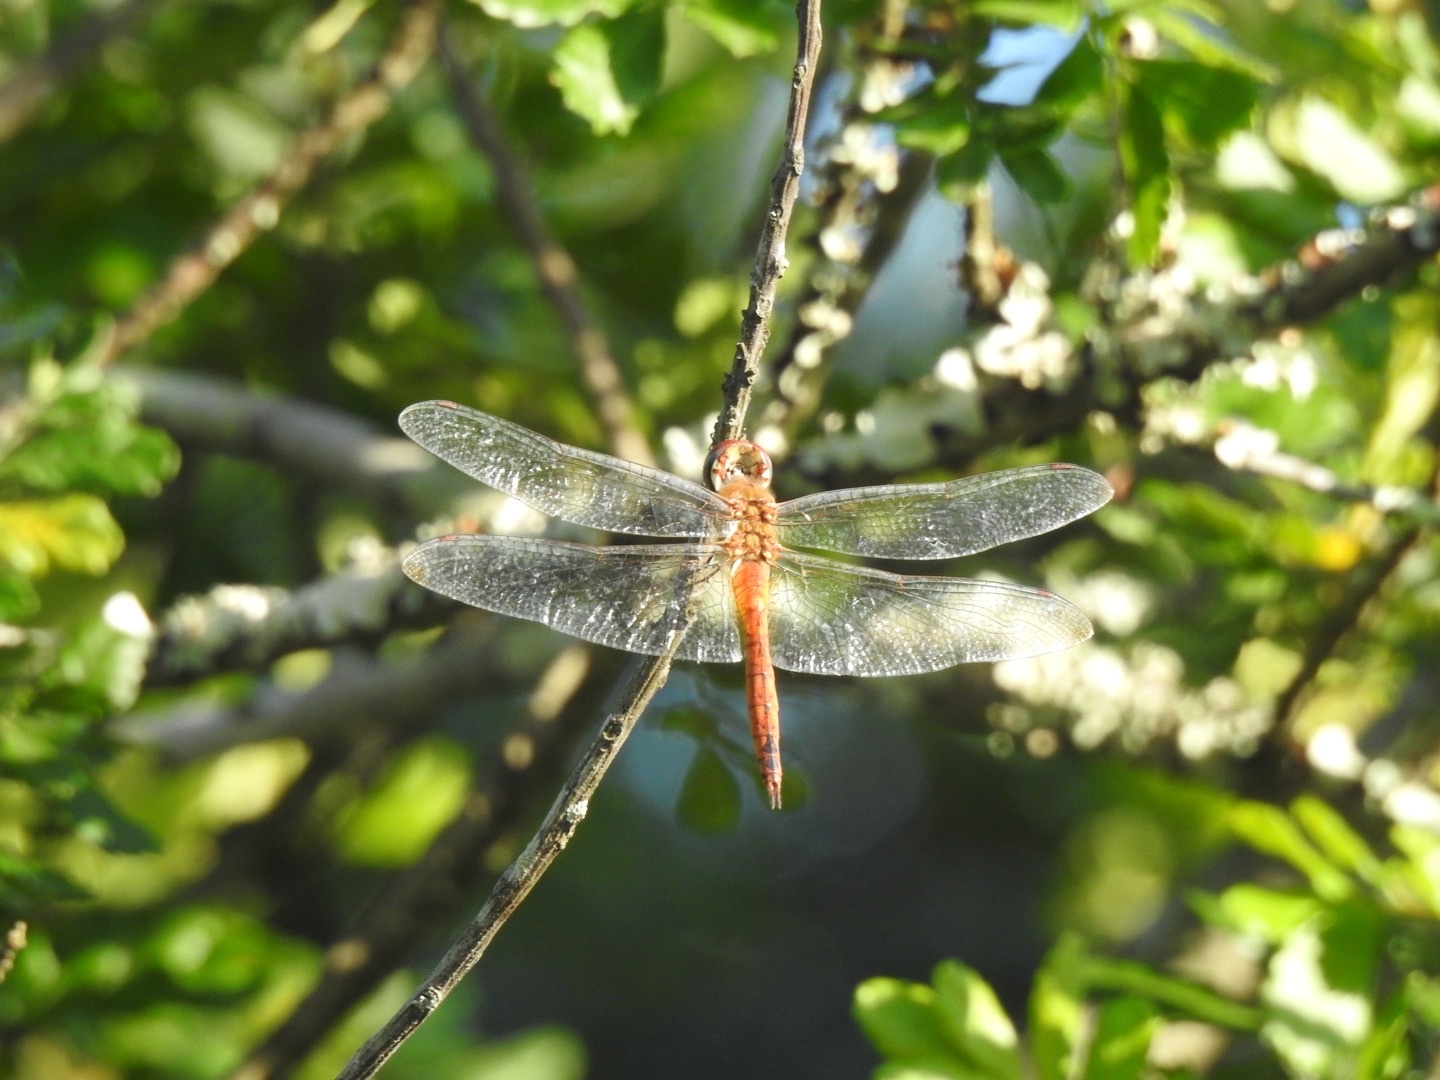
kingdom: Animalia
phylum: Arthropoda
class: Insecta
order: Odonata
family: Libellulidae
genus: Pantala
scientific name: Pantala flavescens
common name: Wandering glider
